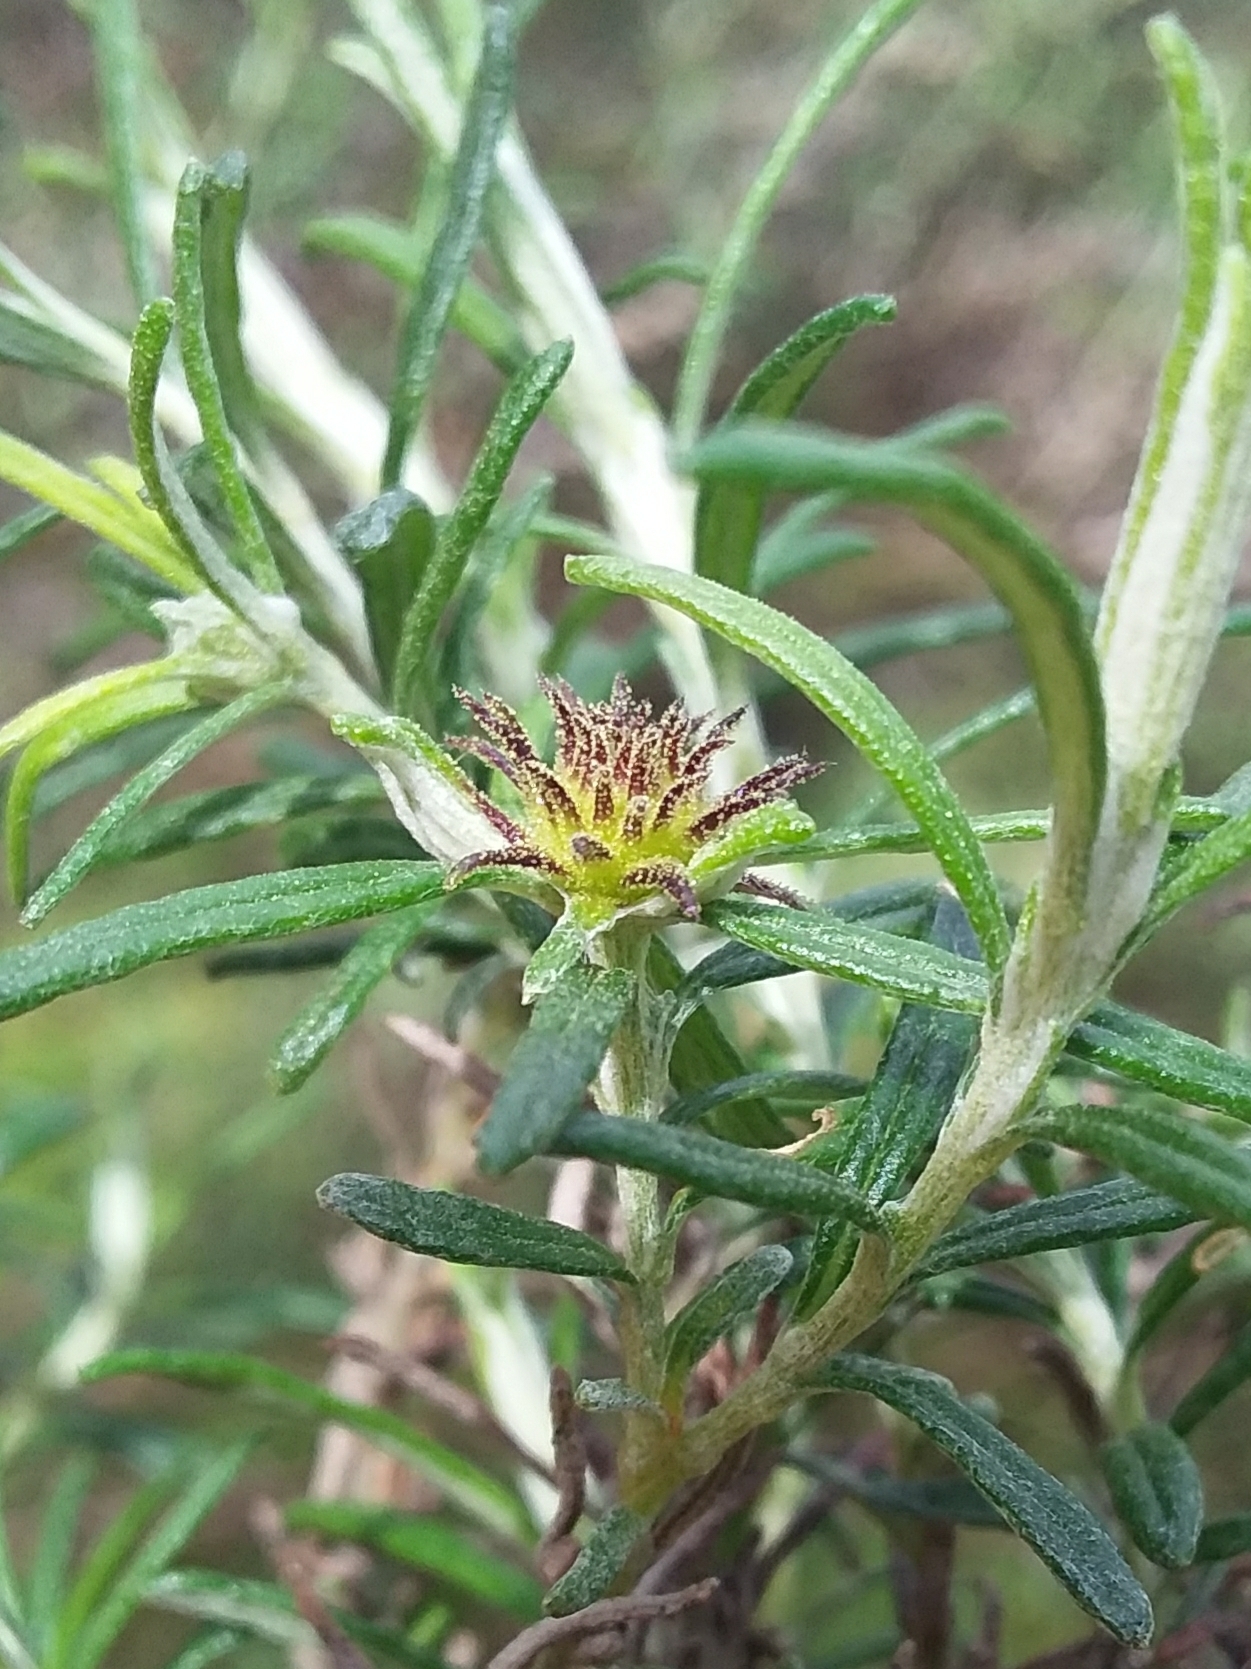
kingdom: Animalia
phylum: Arthropoda
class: Insecta
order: Diptera
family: Cecidomyiidae
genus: Trigonomyia
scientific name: Trigonomyia ananas
